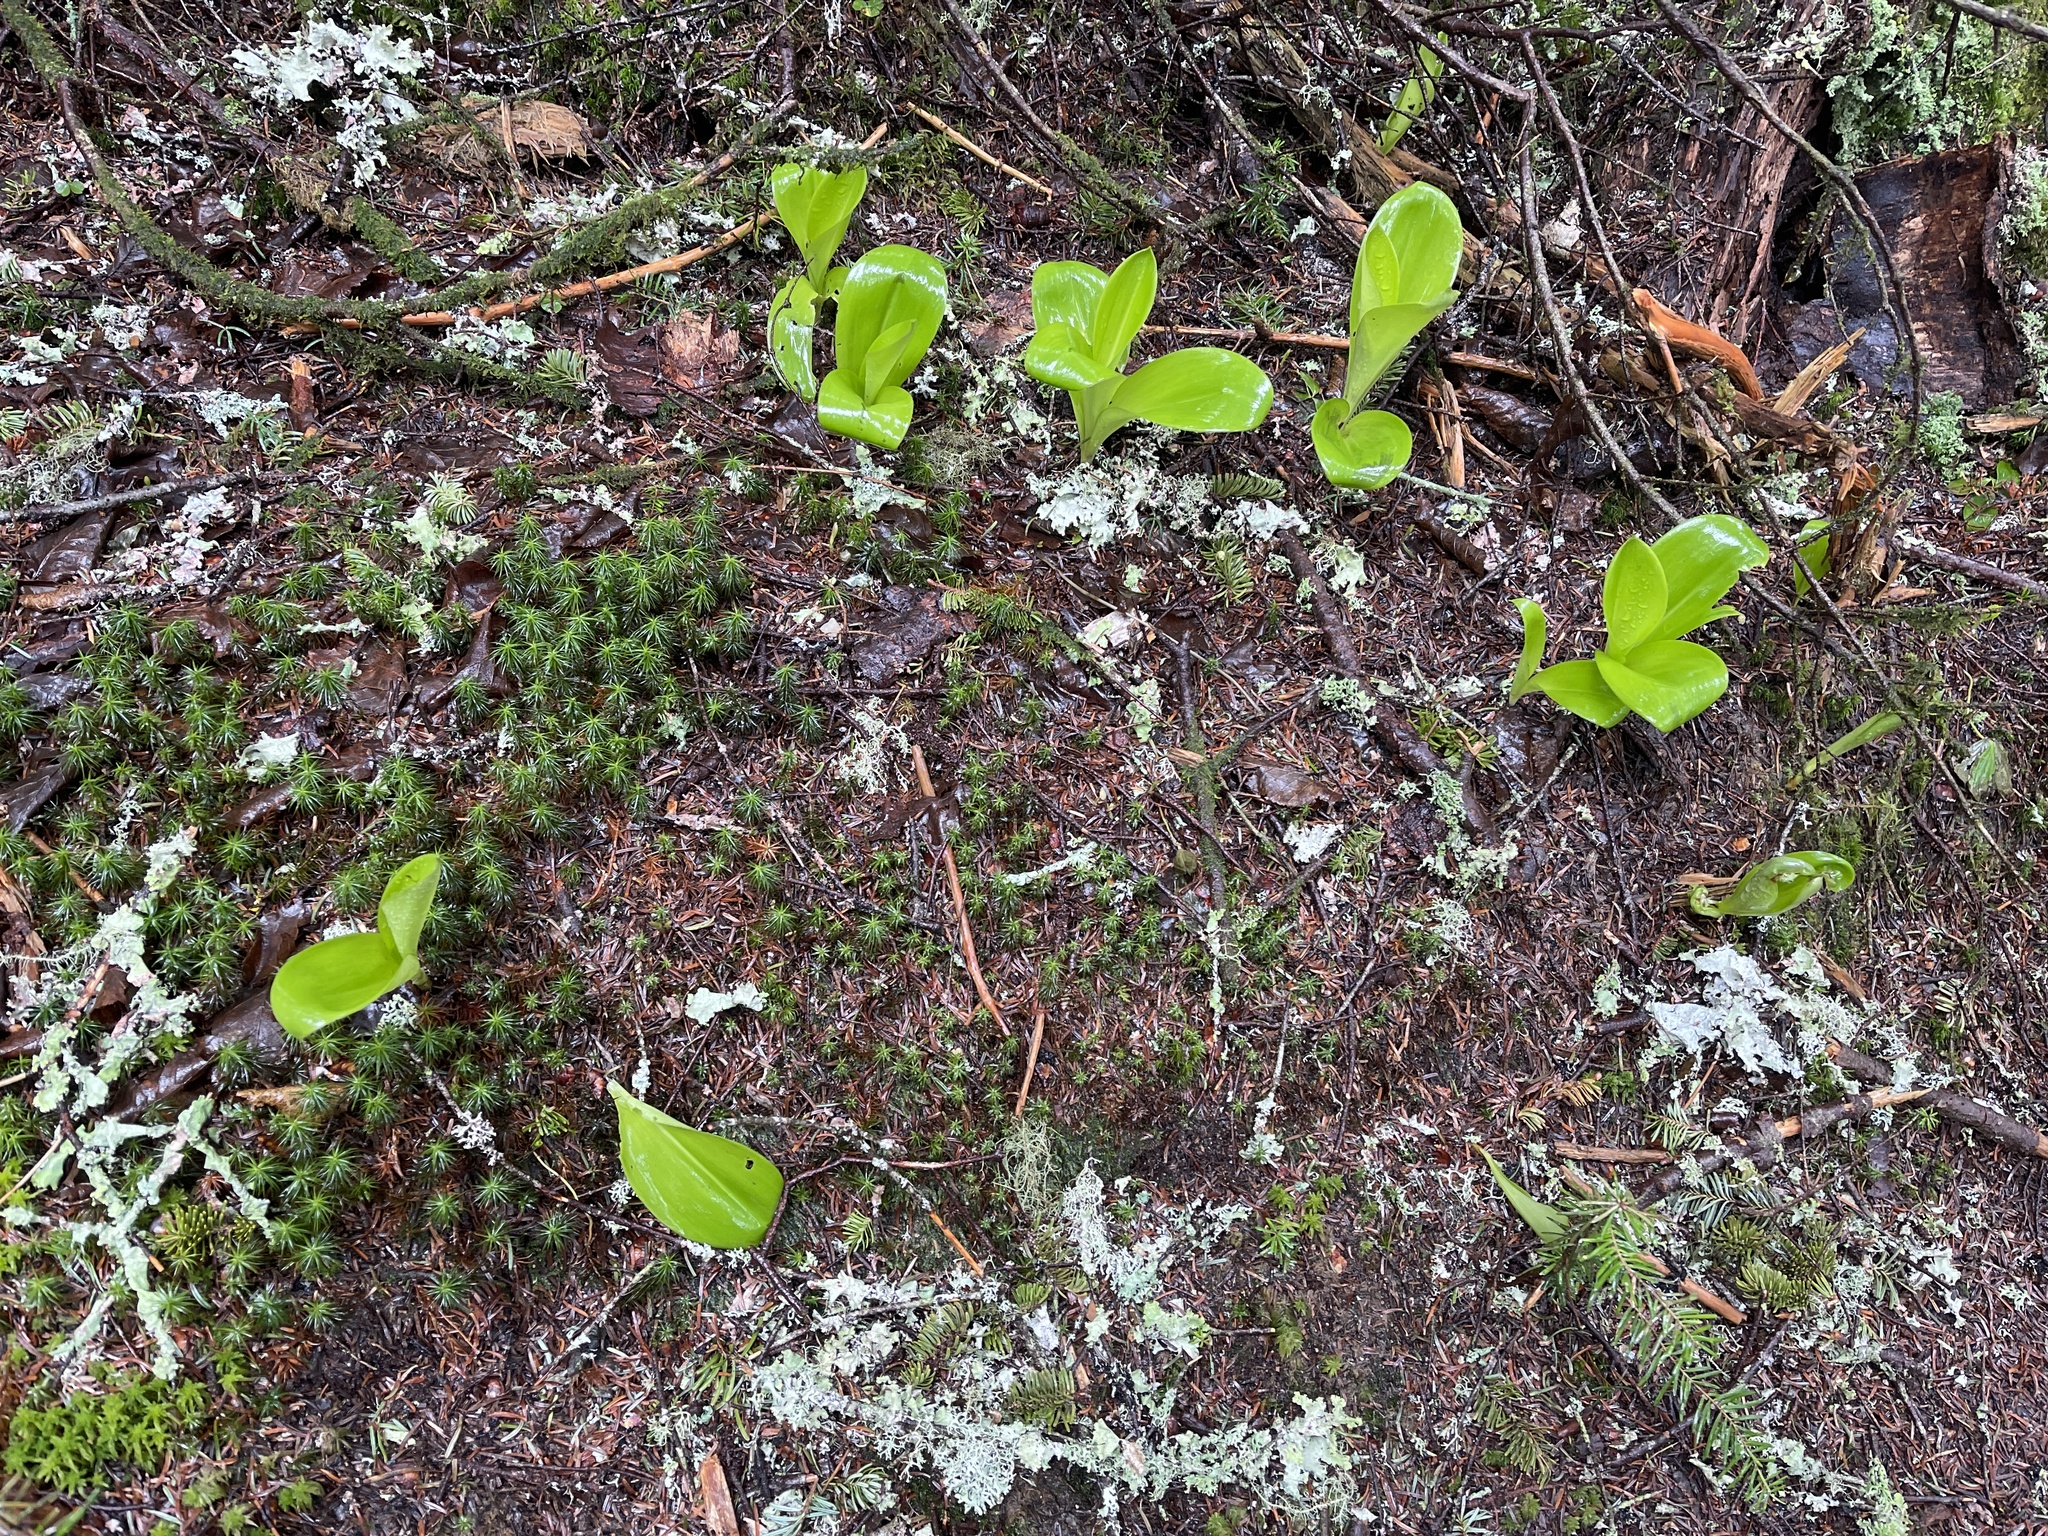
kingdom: Plantae
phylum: Tracheophyta
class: Liliopsida
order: Liliales
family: Liliaceae
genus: Clintonia
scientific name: Clintonia borealis
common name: Yellow clintonia
